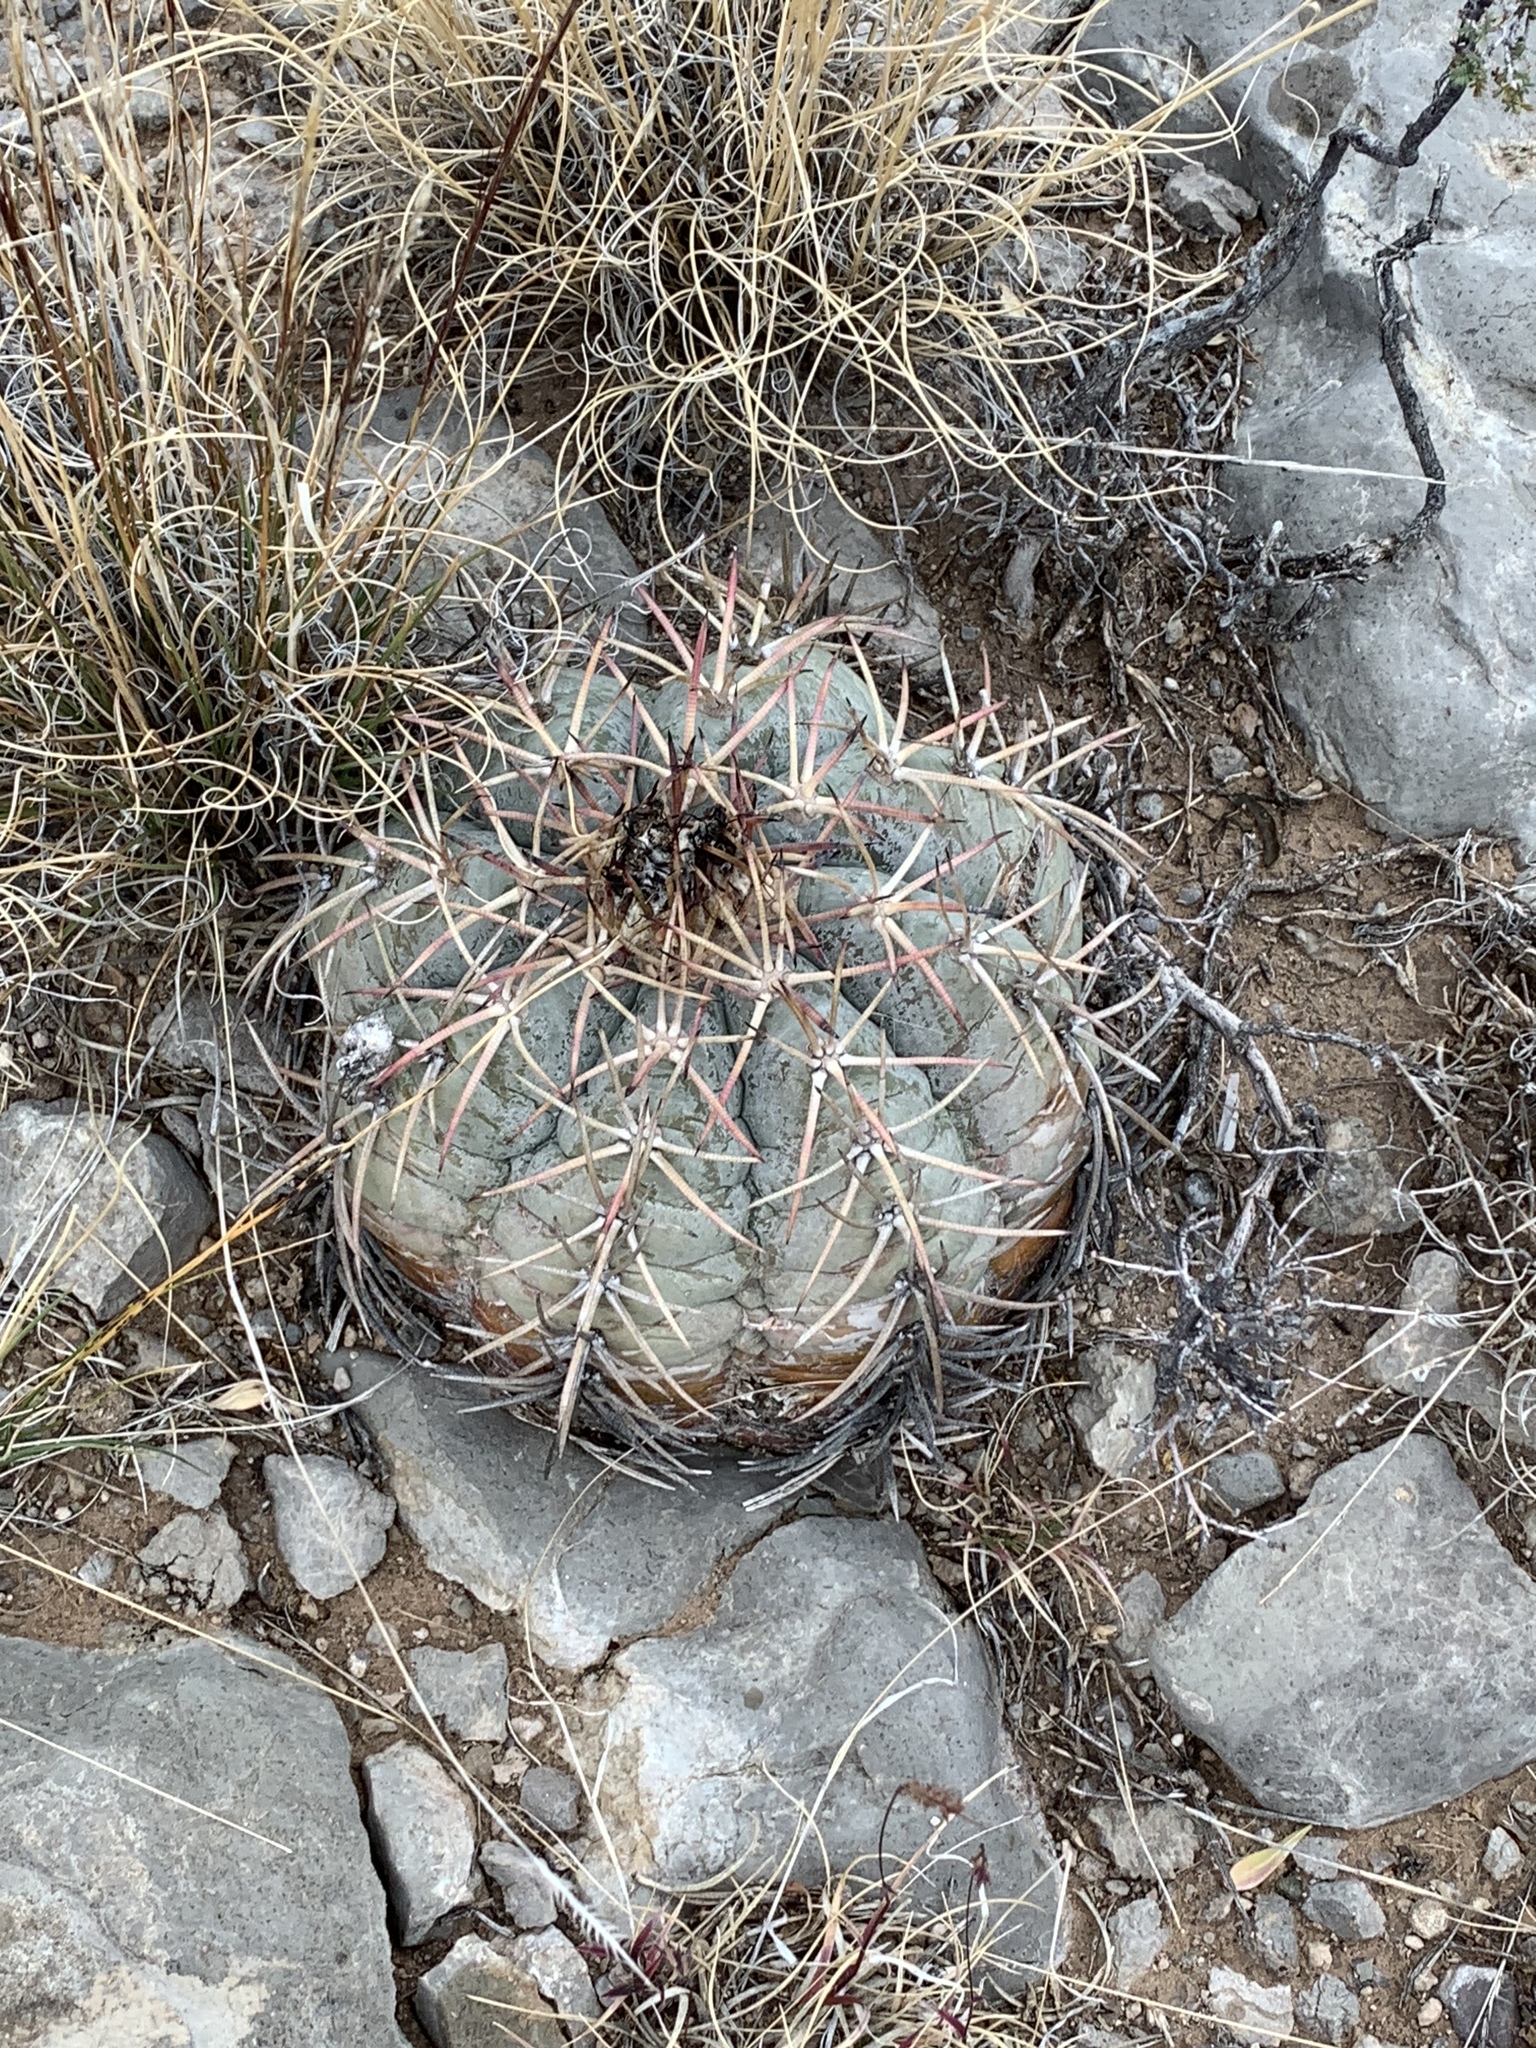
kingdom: Plantae
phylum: Tracheophyta
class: Magnoliopsida
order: Caryophyllales
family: Cactaceae
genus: Echinocactus
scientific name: Echinocactus horizonthalonius
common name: Devilshead
